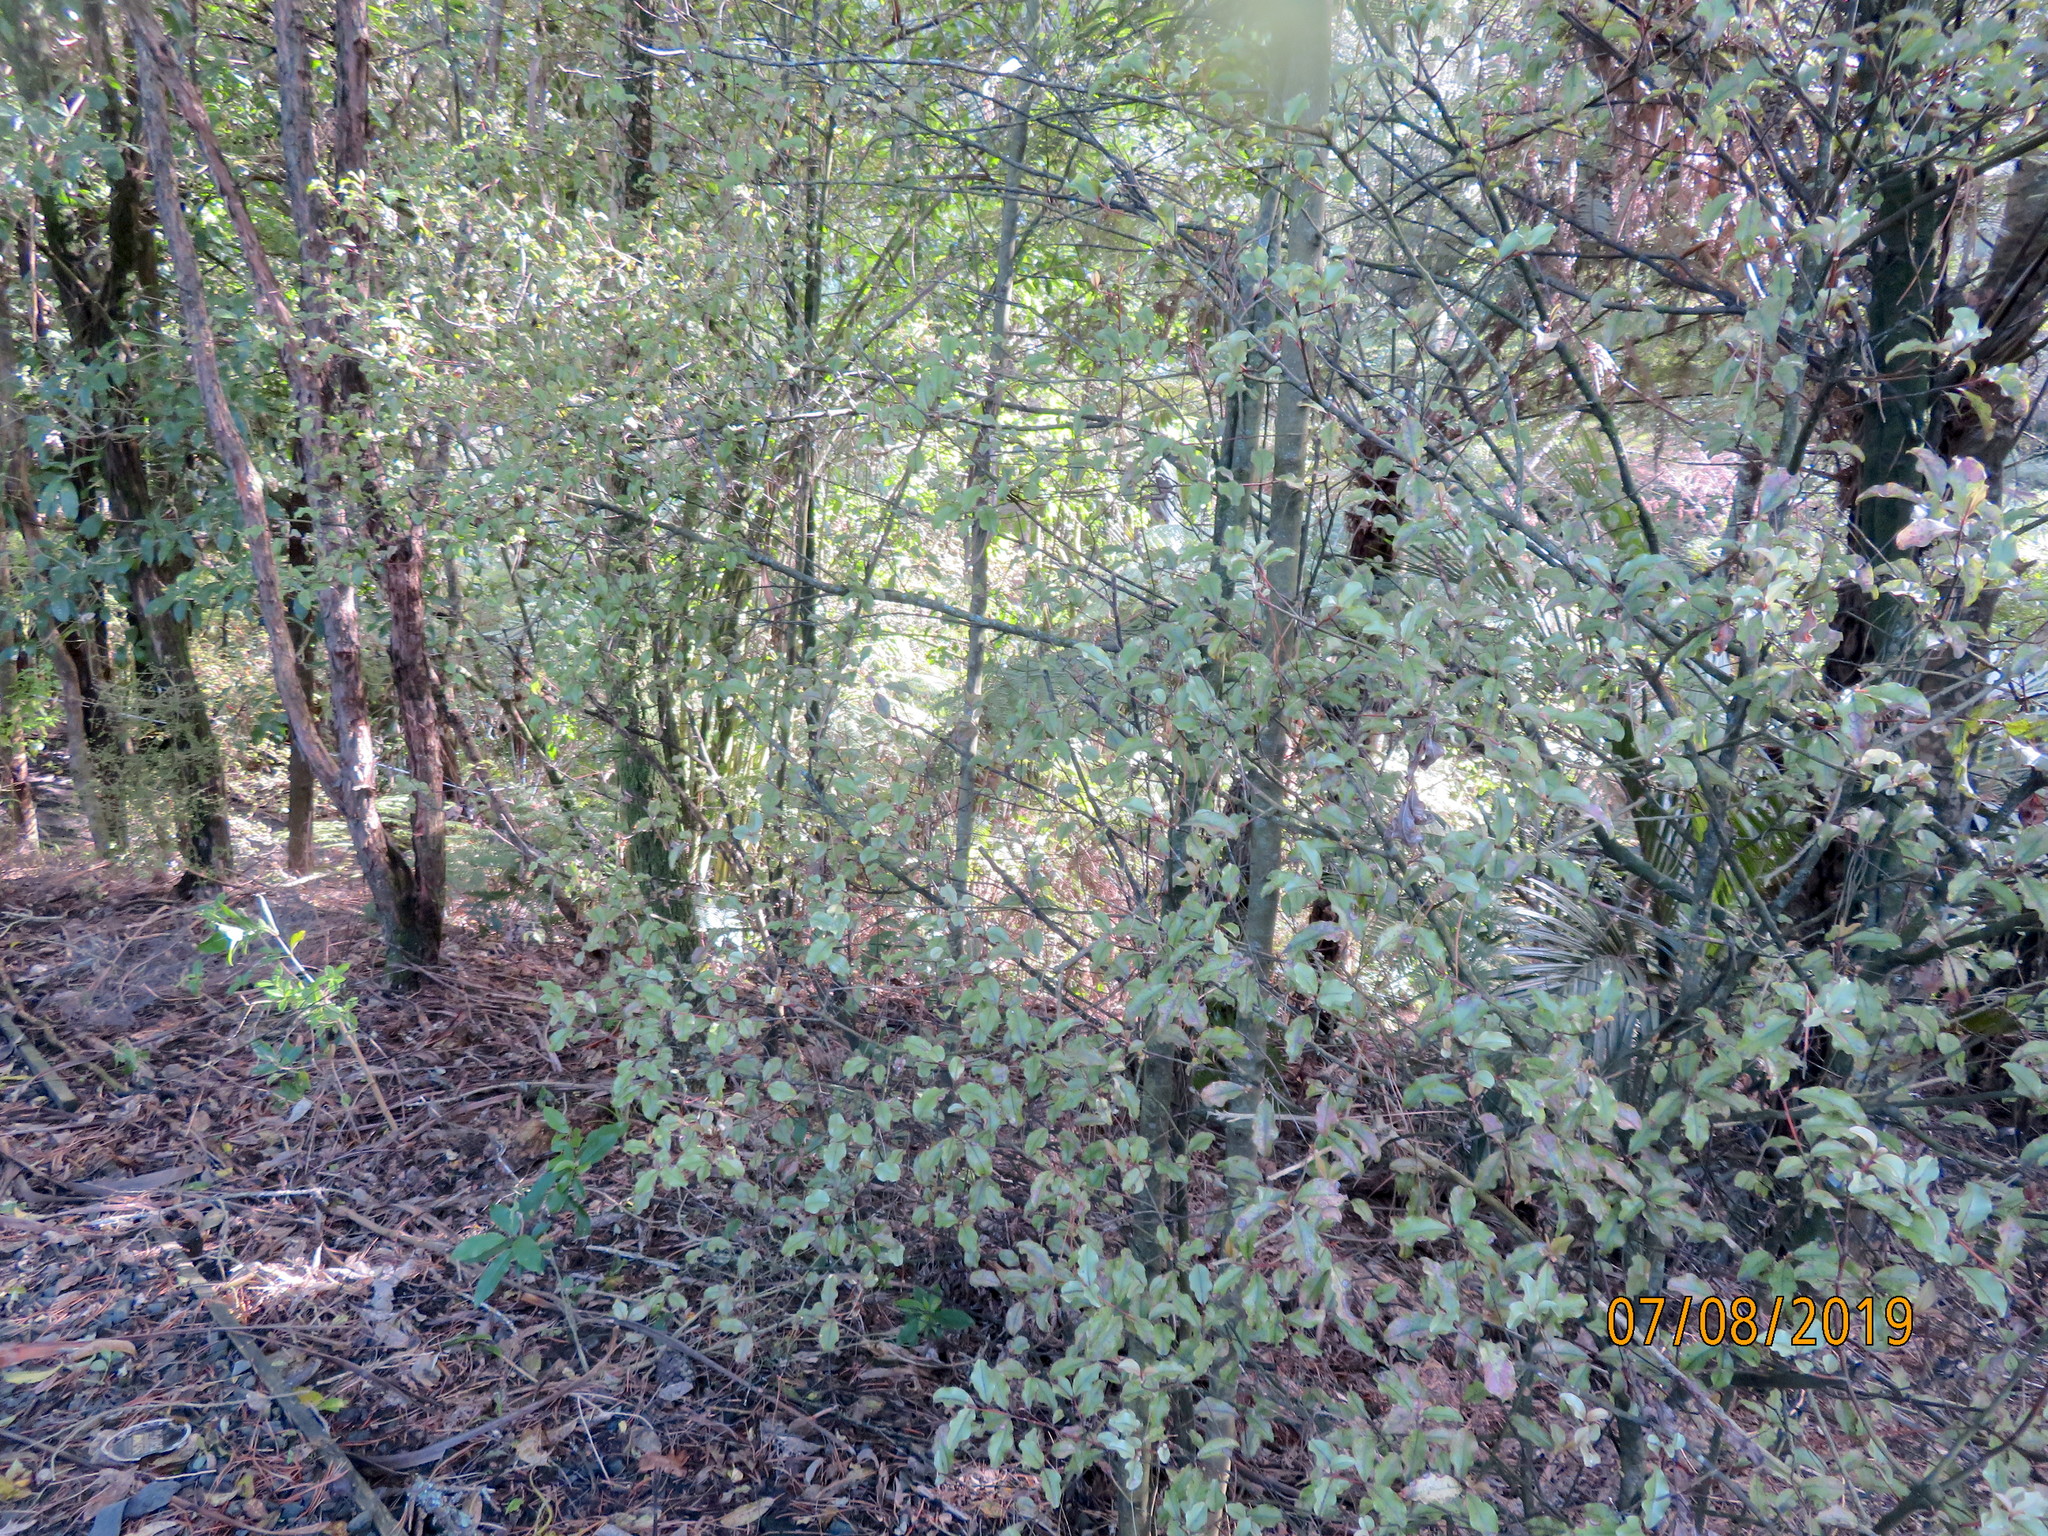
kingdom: Plantae
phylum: Tracheophyta
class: Magnoliopsida
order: Ericales
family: Primulaceae
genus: Myrsine
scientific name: Myrsine australis
